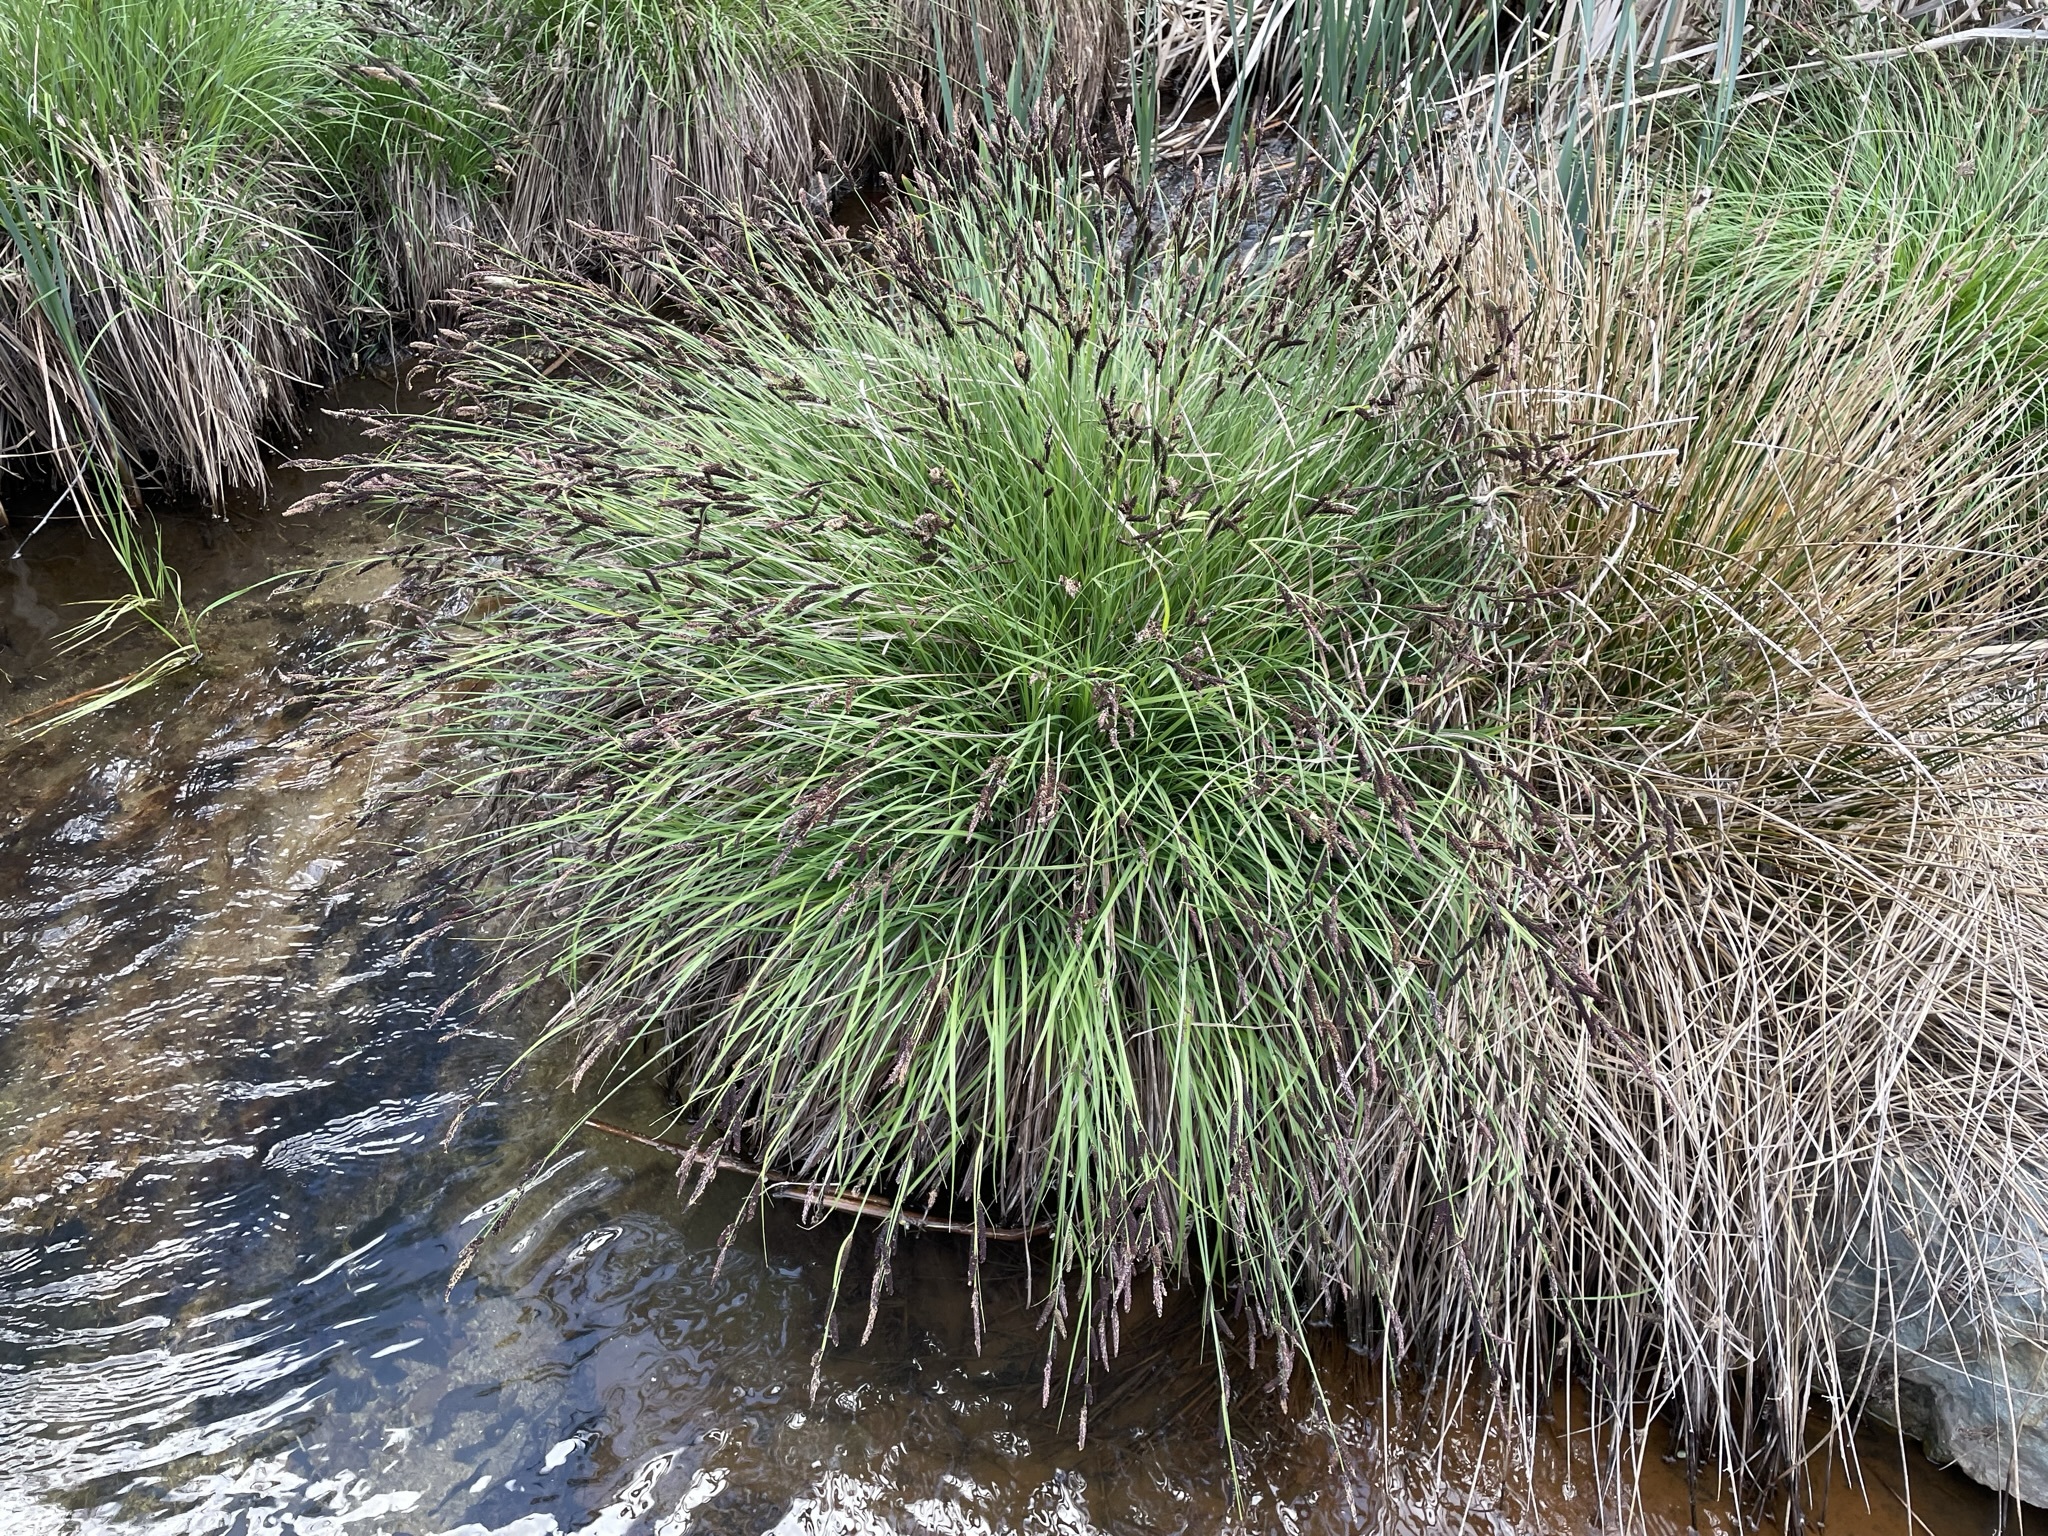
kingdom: Plantae
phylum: Tracheophyta
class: Liliopsida
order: Poales
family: Cyperaceae
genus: Carex
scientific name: Carex nudata
